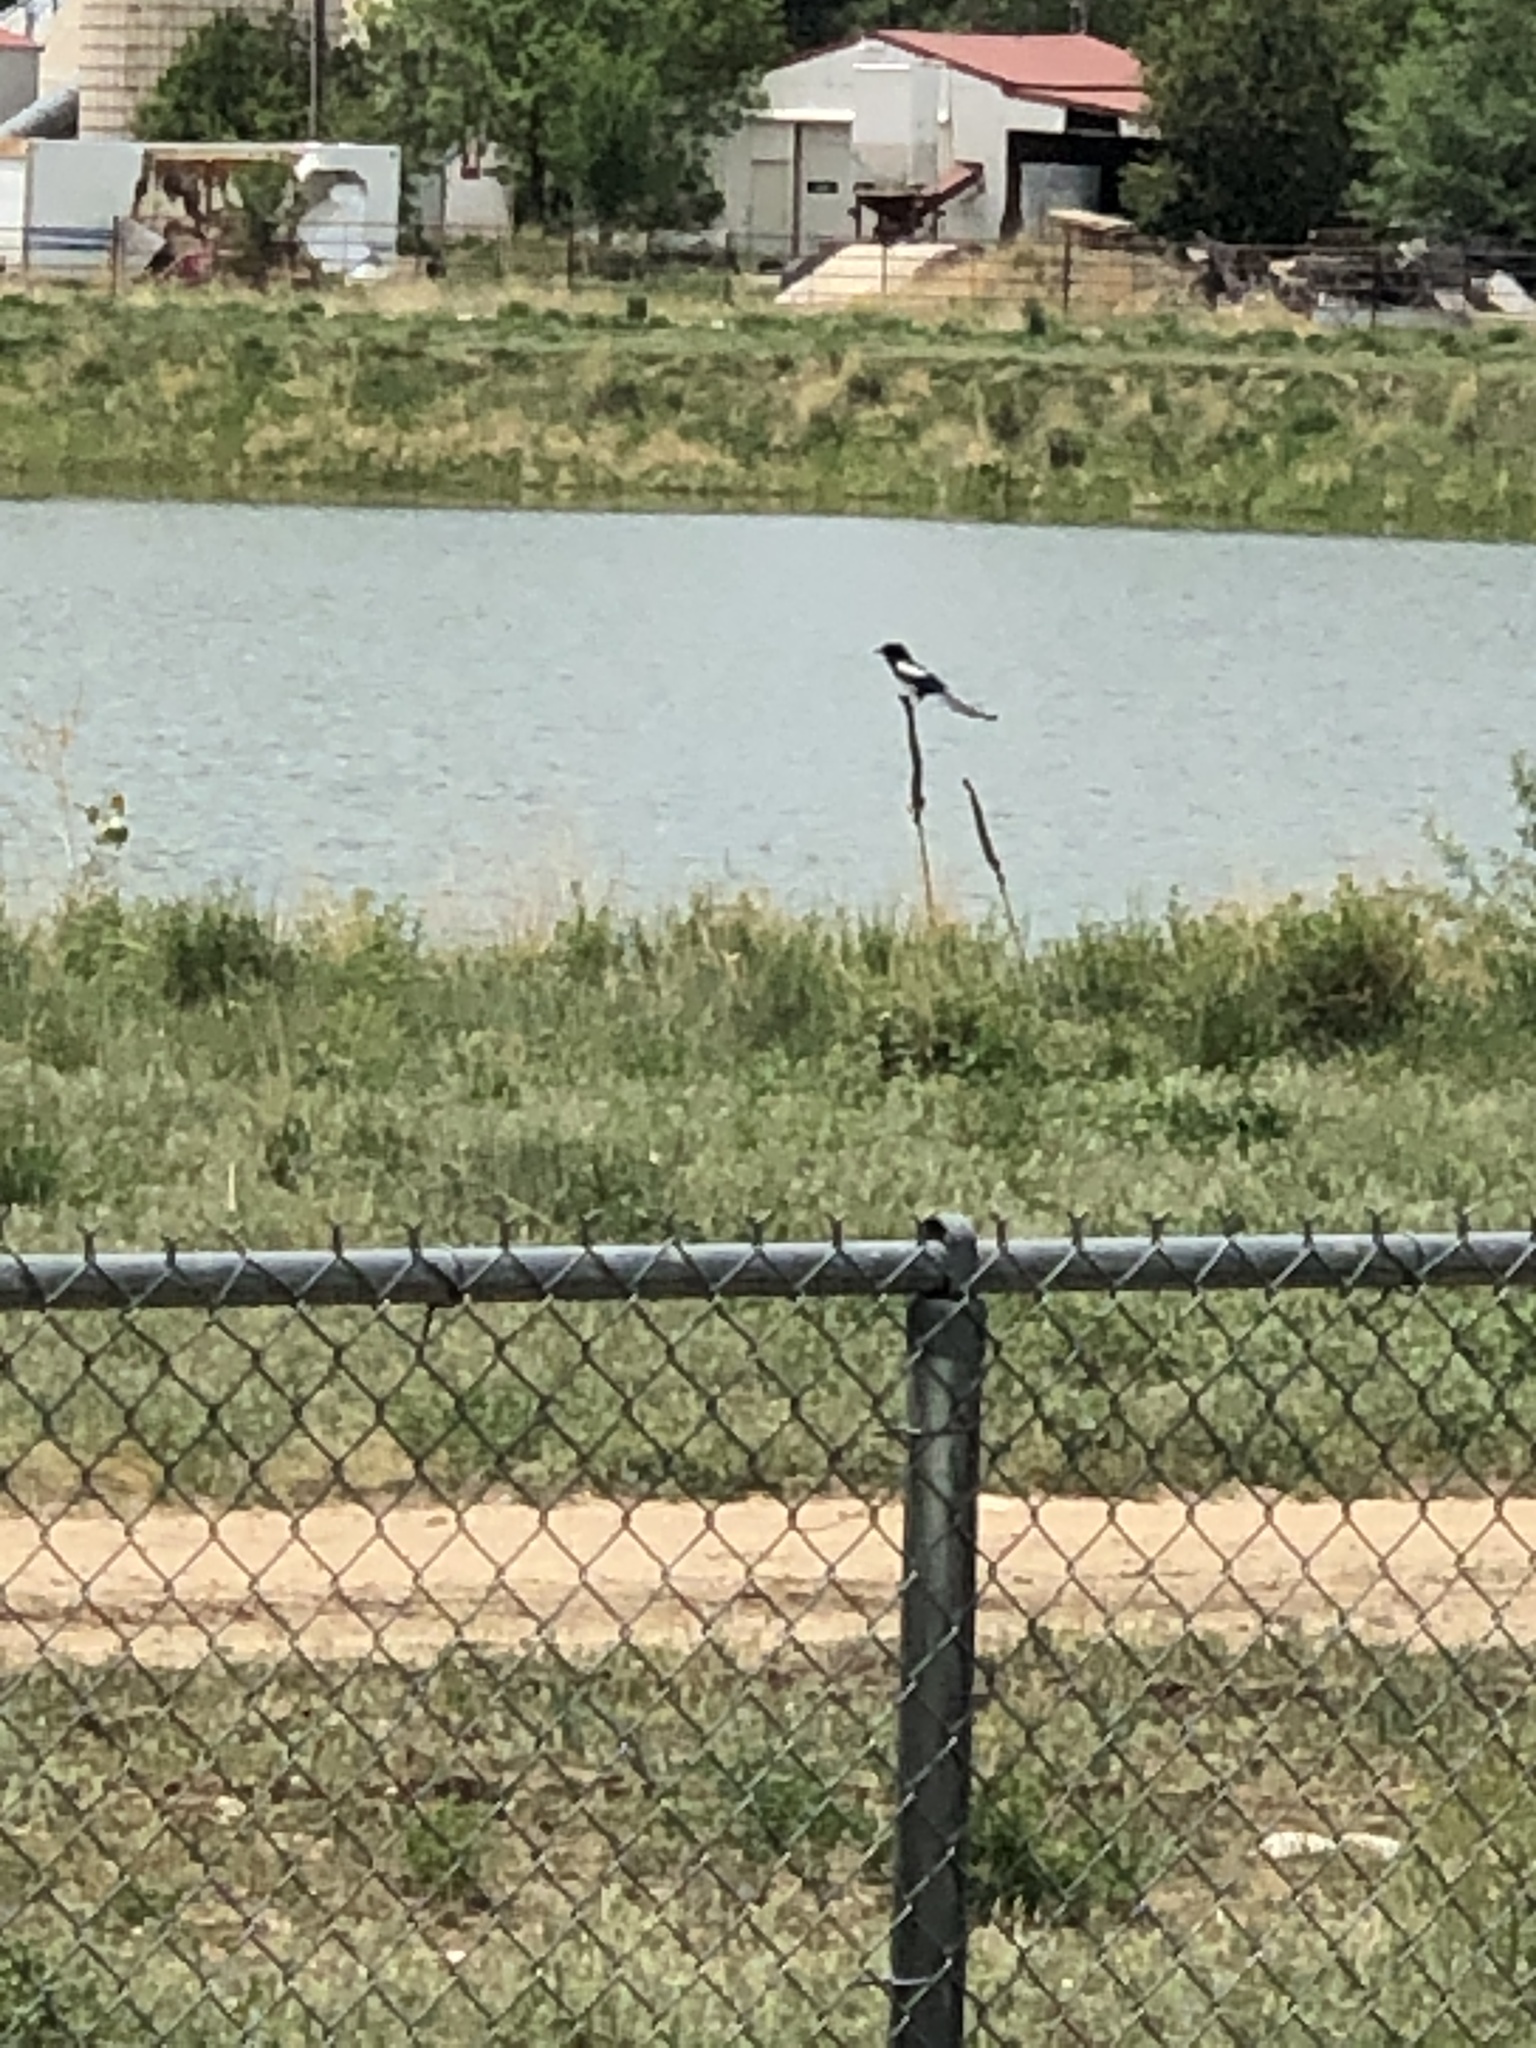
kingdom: Animalia
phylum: Chordata
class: Aves
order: Passeriformes
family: Corvidae
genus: Pica
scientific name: Pica hudsonia
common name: Black-billed magpie
